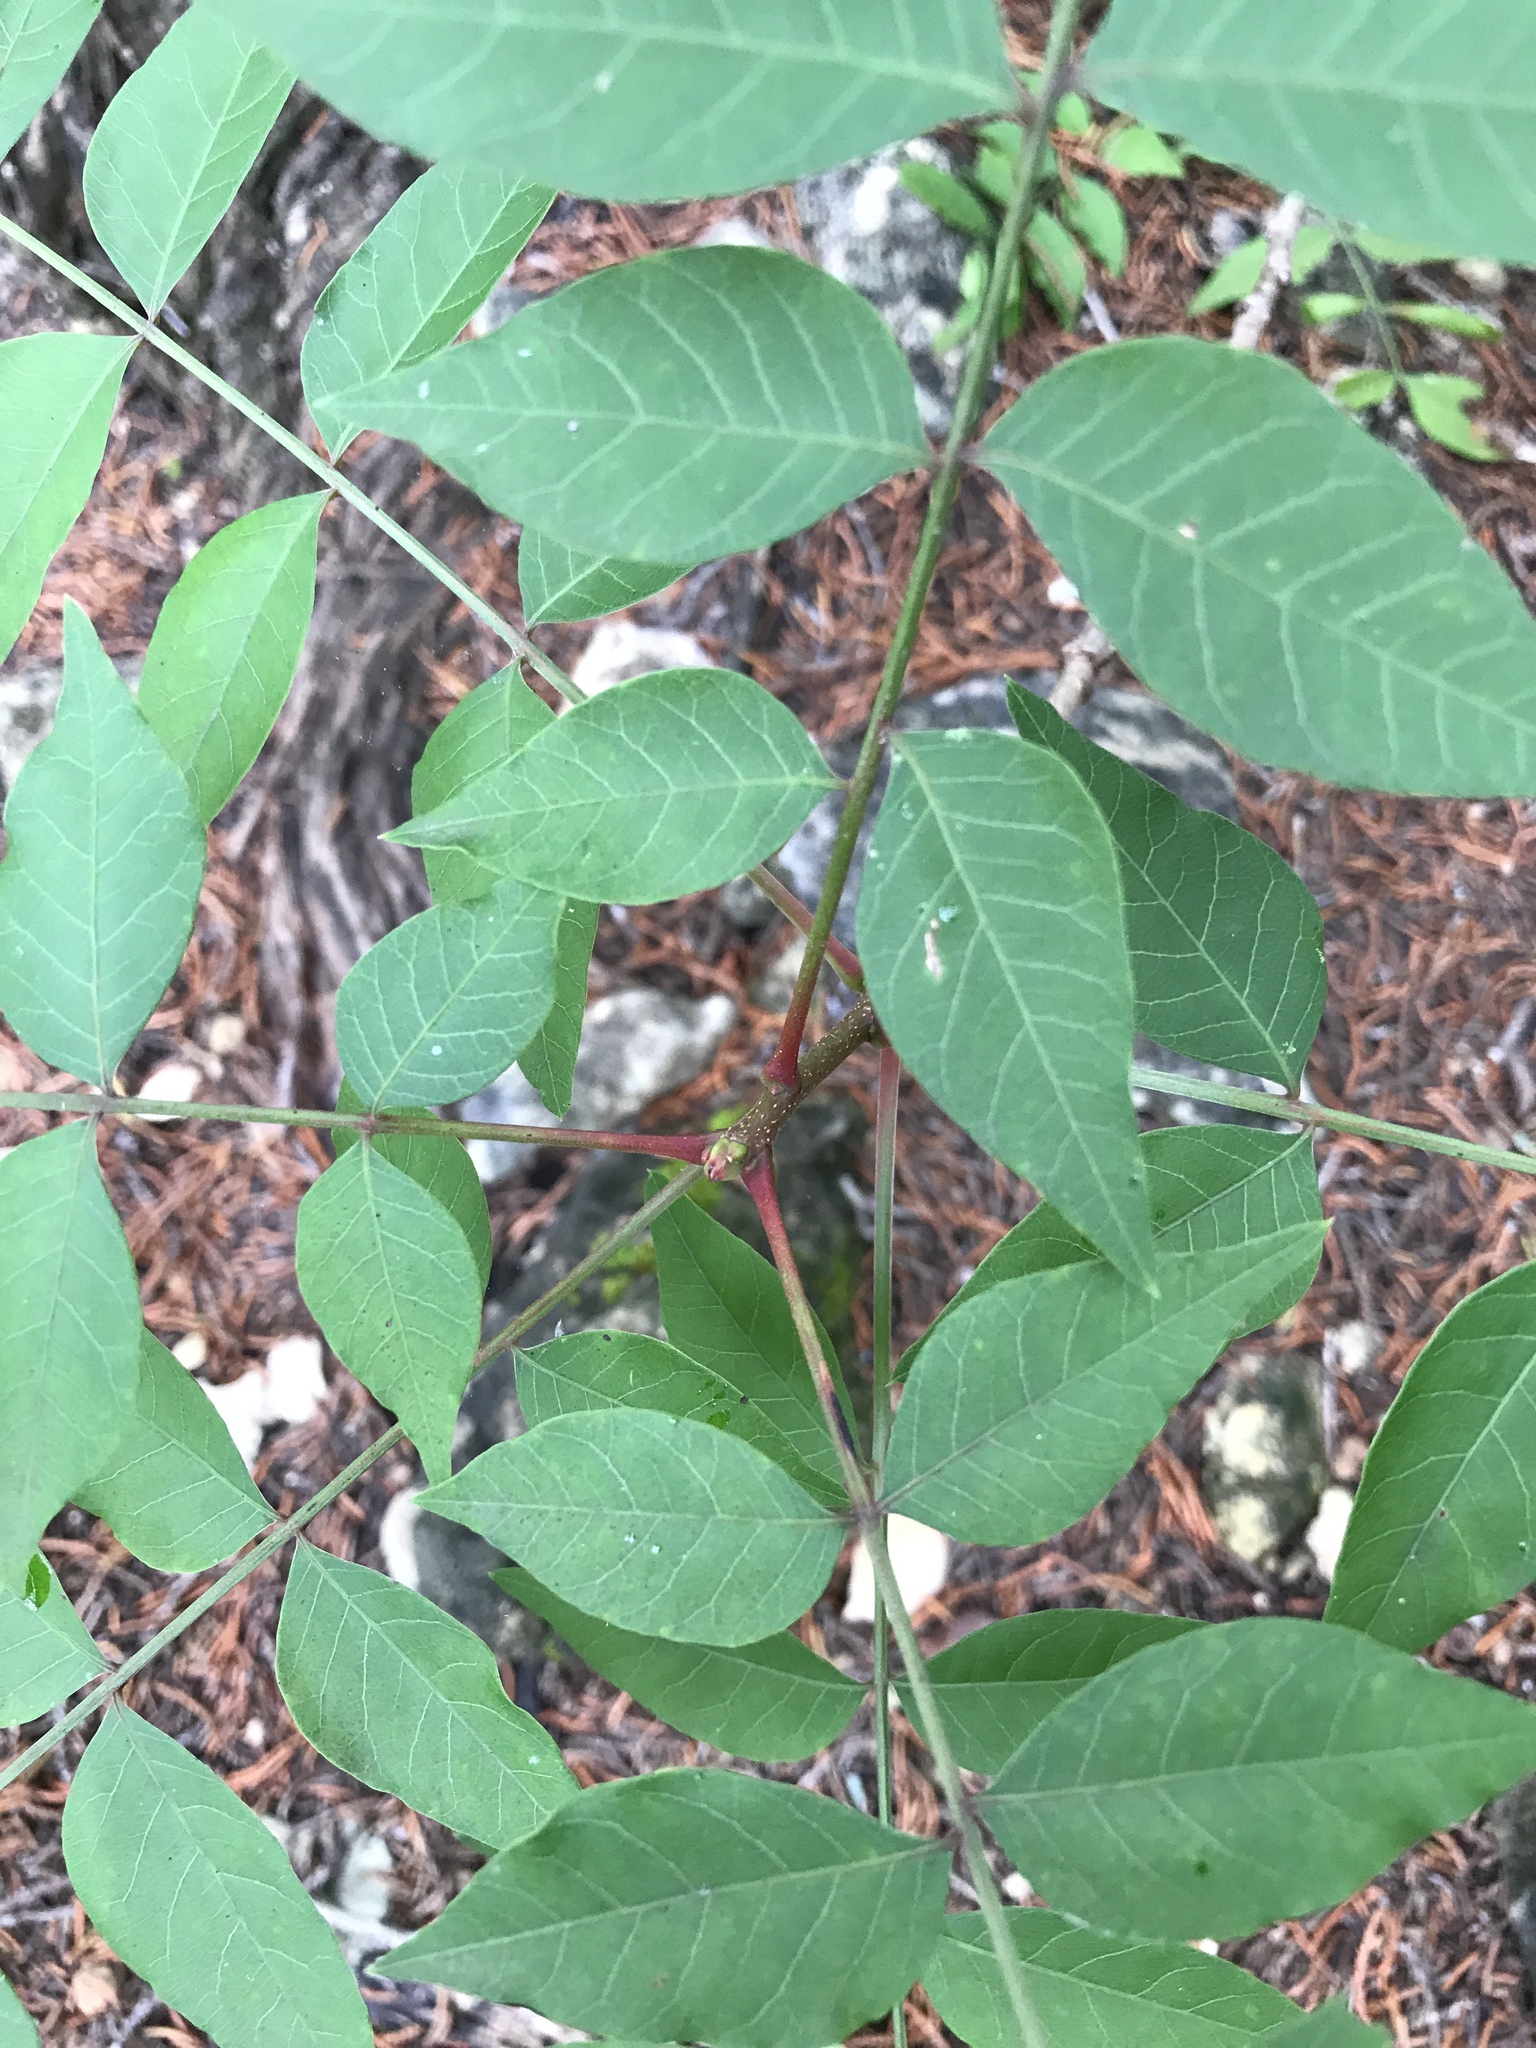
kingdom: Plantae
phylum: Tracheophyta
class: Magnoliopsida
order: Sapindales
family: Anacardiaceae
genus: Pistacia
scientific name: Pistacia chinensis
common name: Chinese pistache
